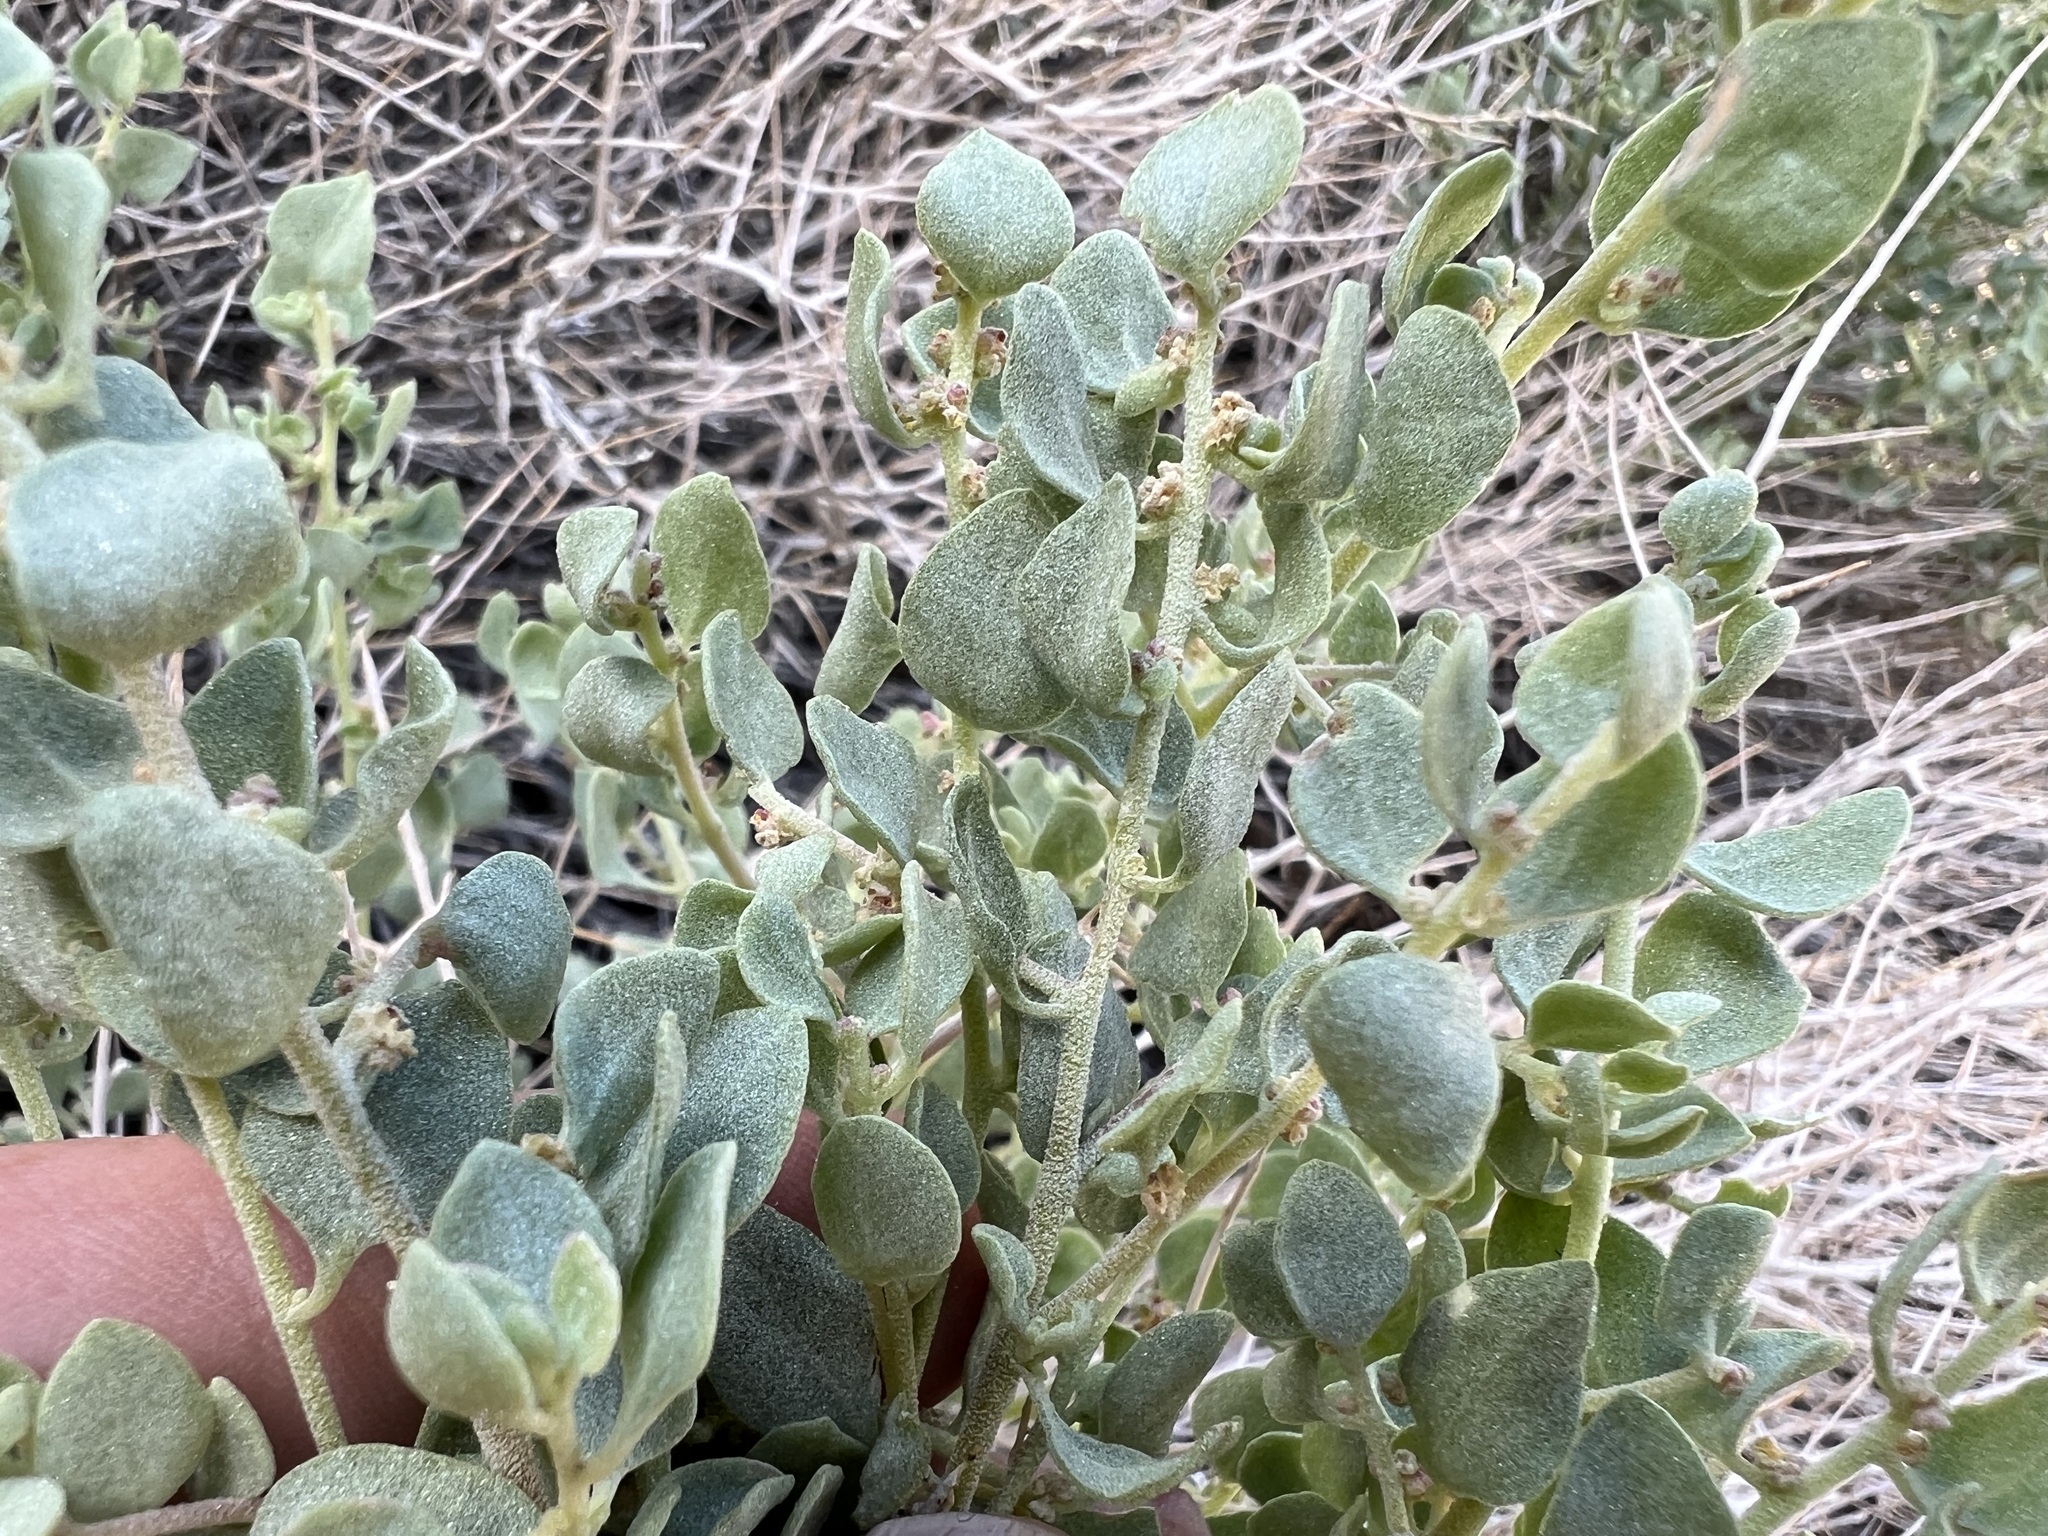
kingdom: Plantae
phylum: Tracheophyta
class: Magnoliopsida
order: Caryophyllales
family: Amaranthaceae
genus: Atriplex
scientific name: Atriplex confertifolia
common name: Shadscale
